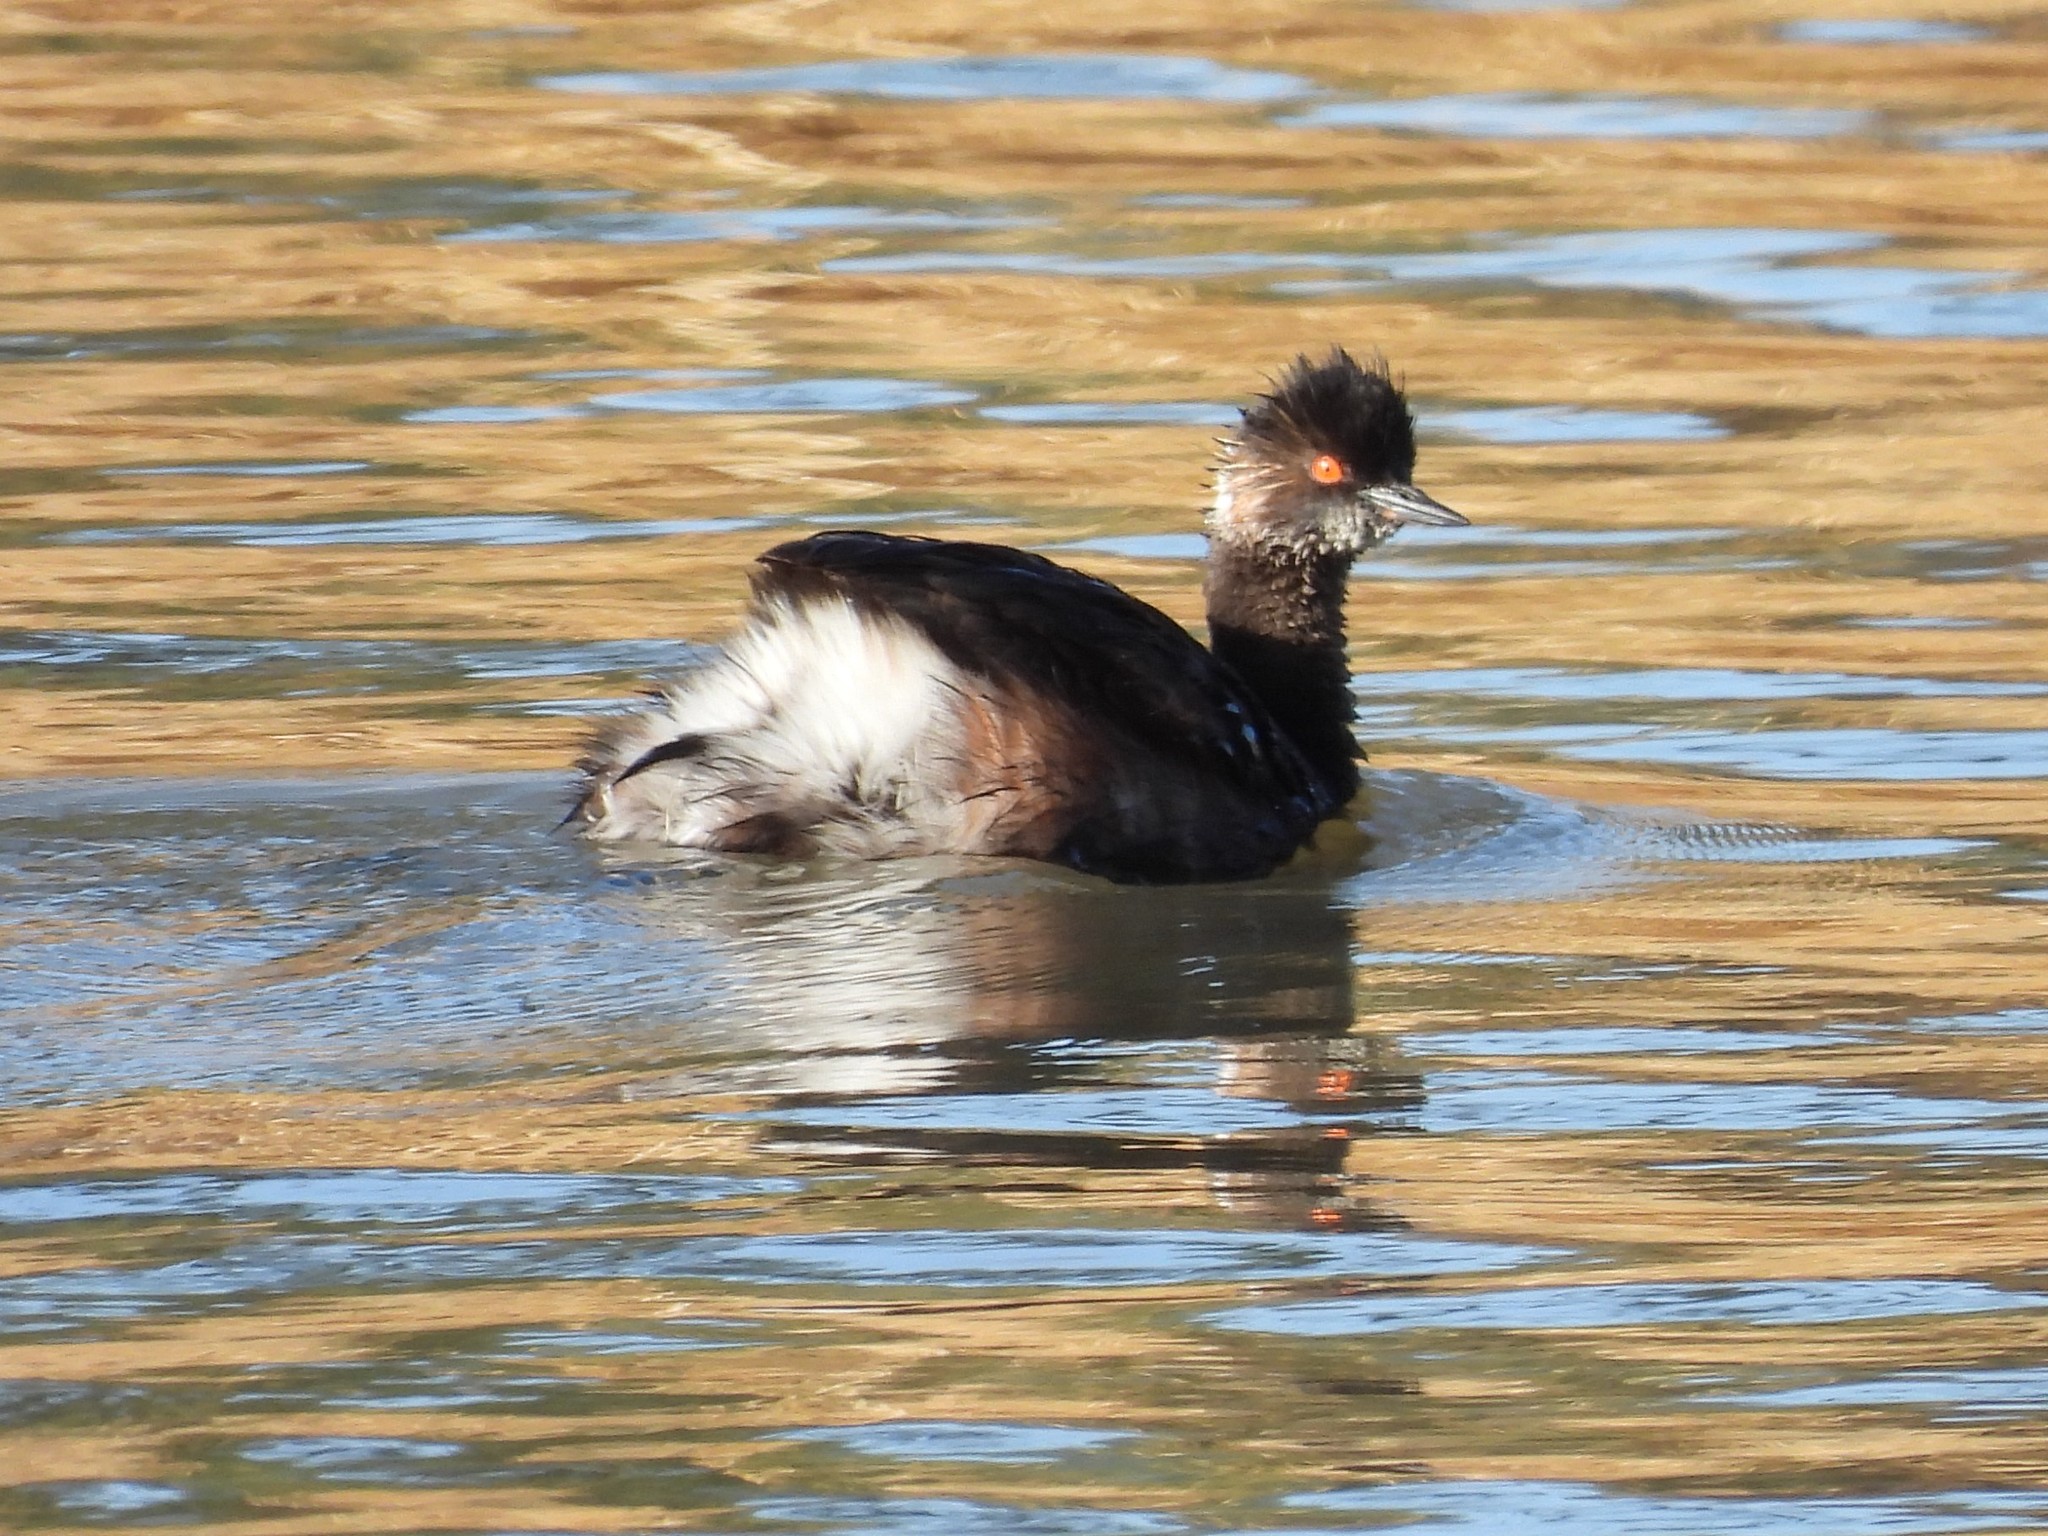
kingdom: Animalia
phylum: Chordata
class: Aves
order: Podicipediformes
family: Podicipedidae
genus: Podiceps
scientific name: Podiceps nigricollis
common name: Black-necked grebe
